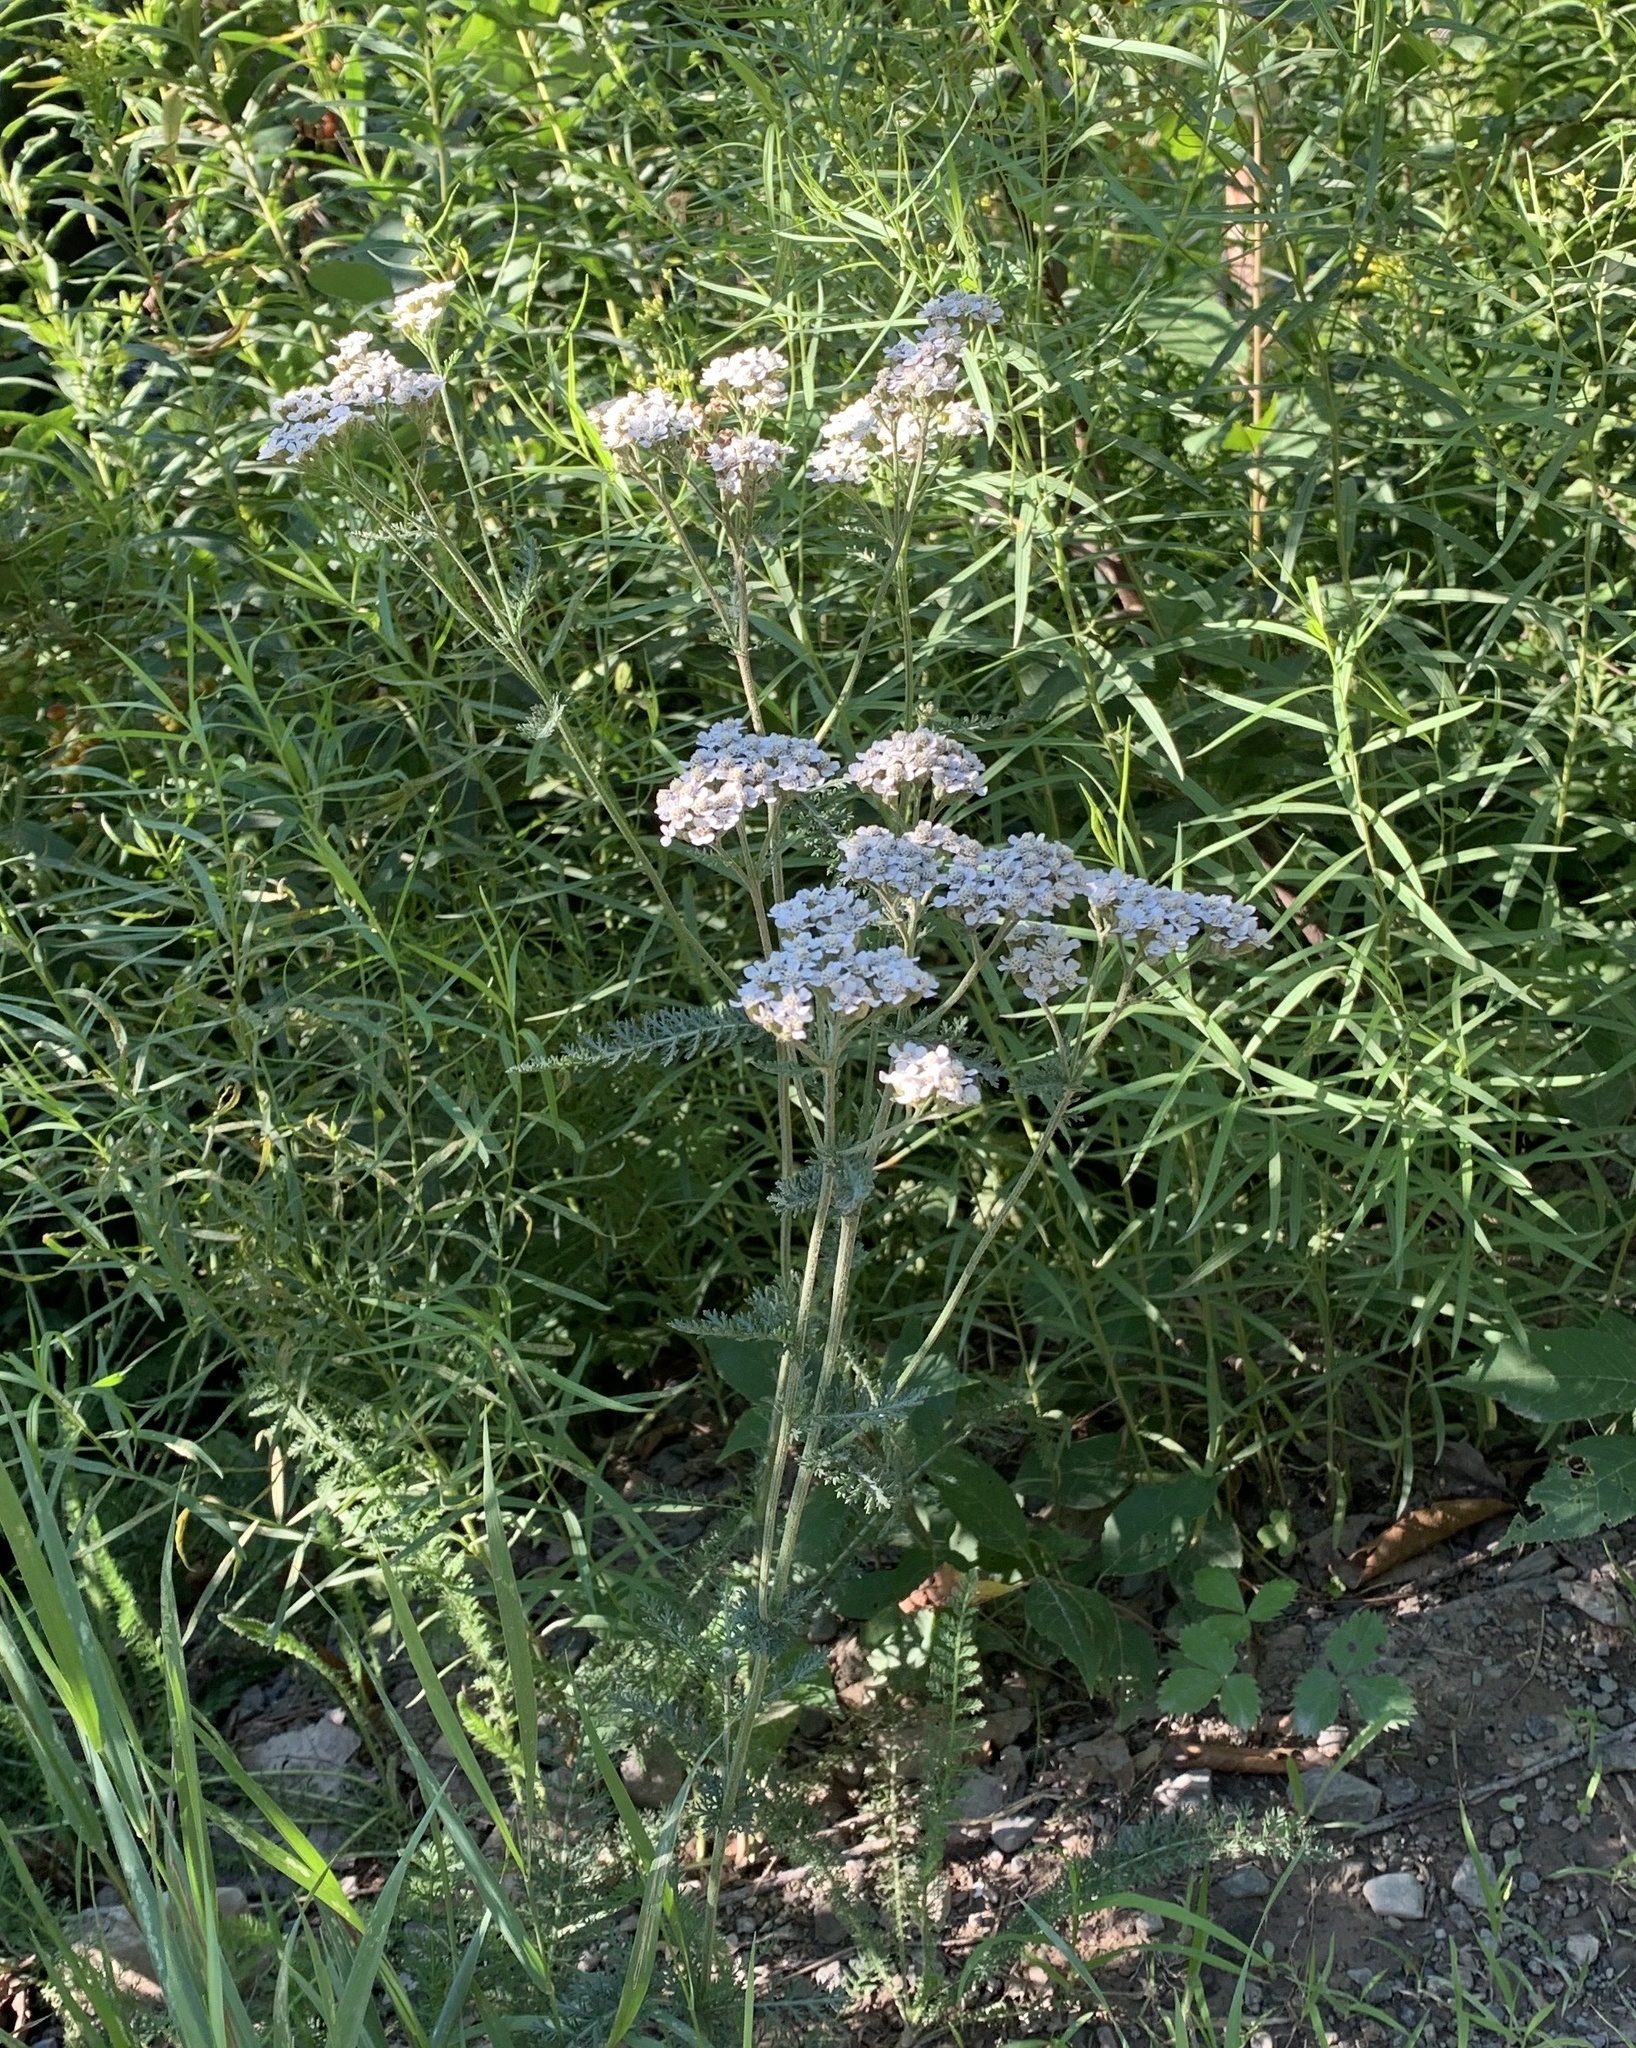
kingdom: Plantae
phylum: Tracheophyta
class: Magnoliopsida
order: Asterales
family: Asteraceae
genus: Achillea
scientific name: Achillea millefolium
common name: Yarrow
